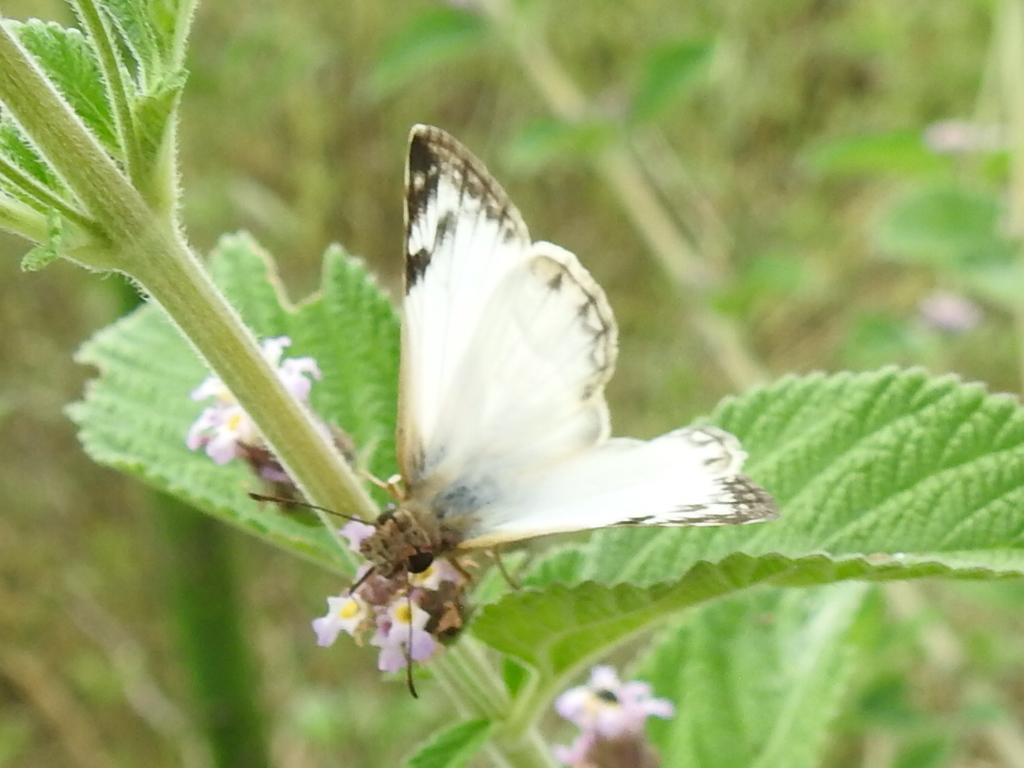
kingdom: Animalia
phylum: Arthropoda
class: Insecta
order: Lepidoptera
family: Hesperiidae
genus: Heliopetes
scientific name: Heliopetes laviana
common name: Laviana white-skipper
